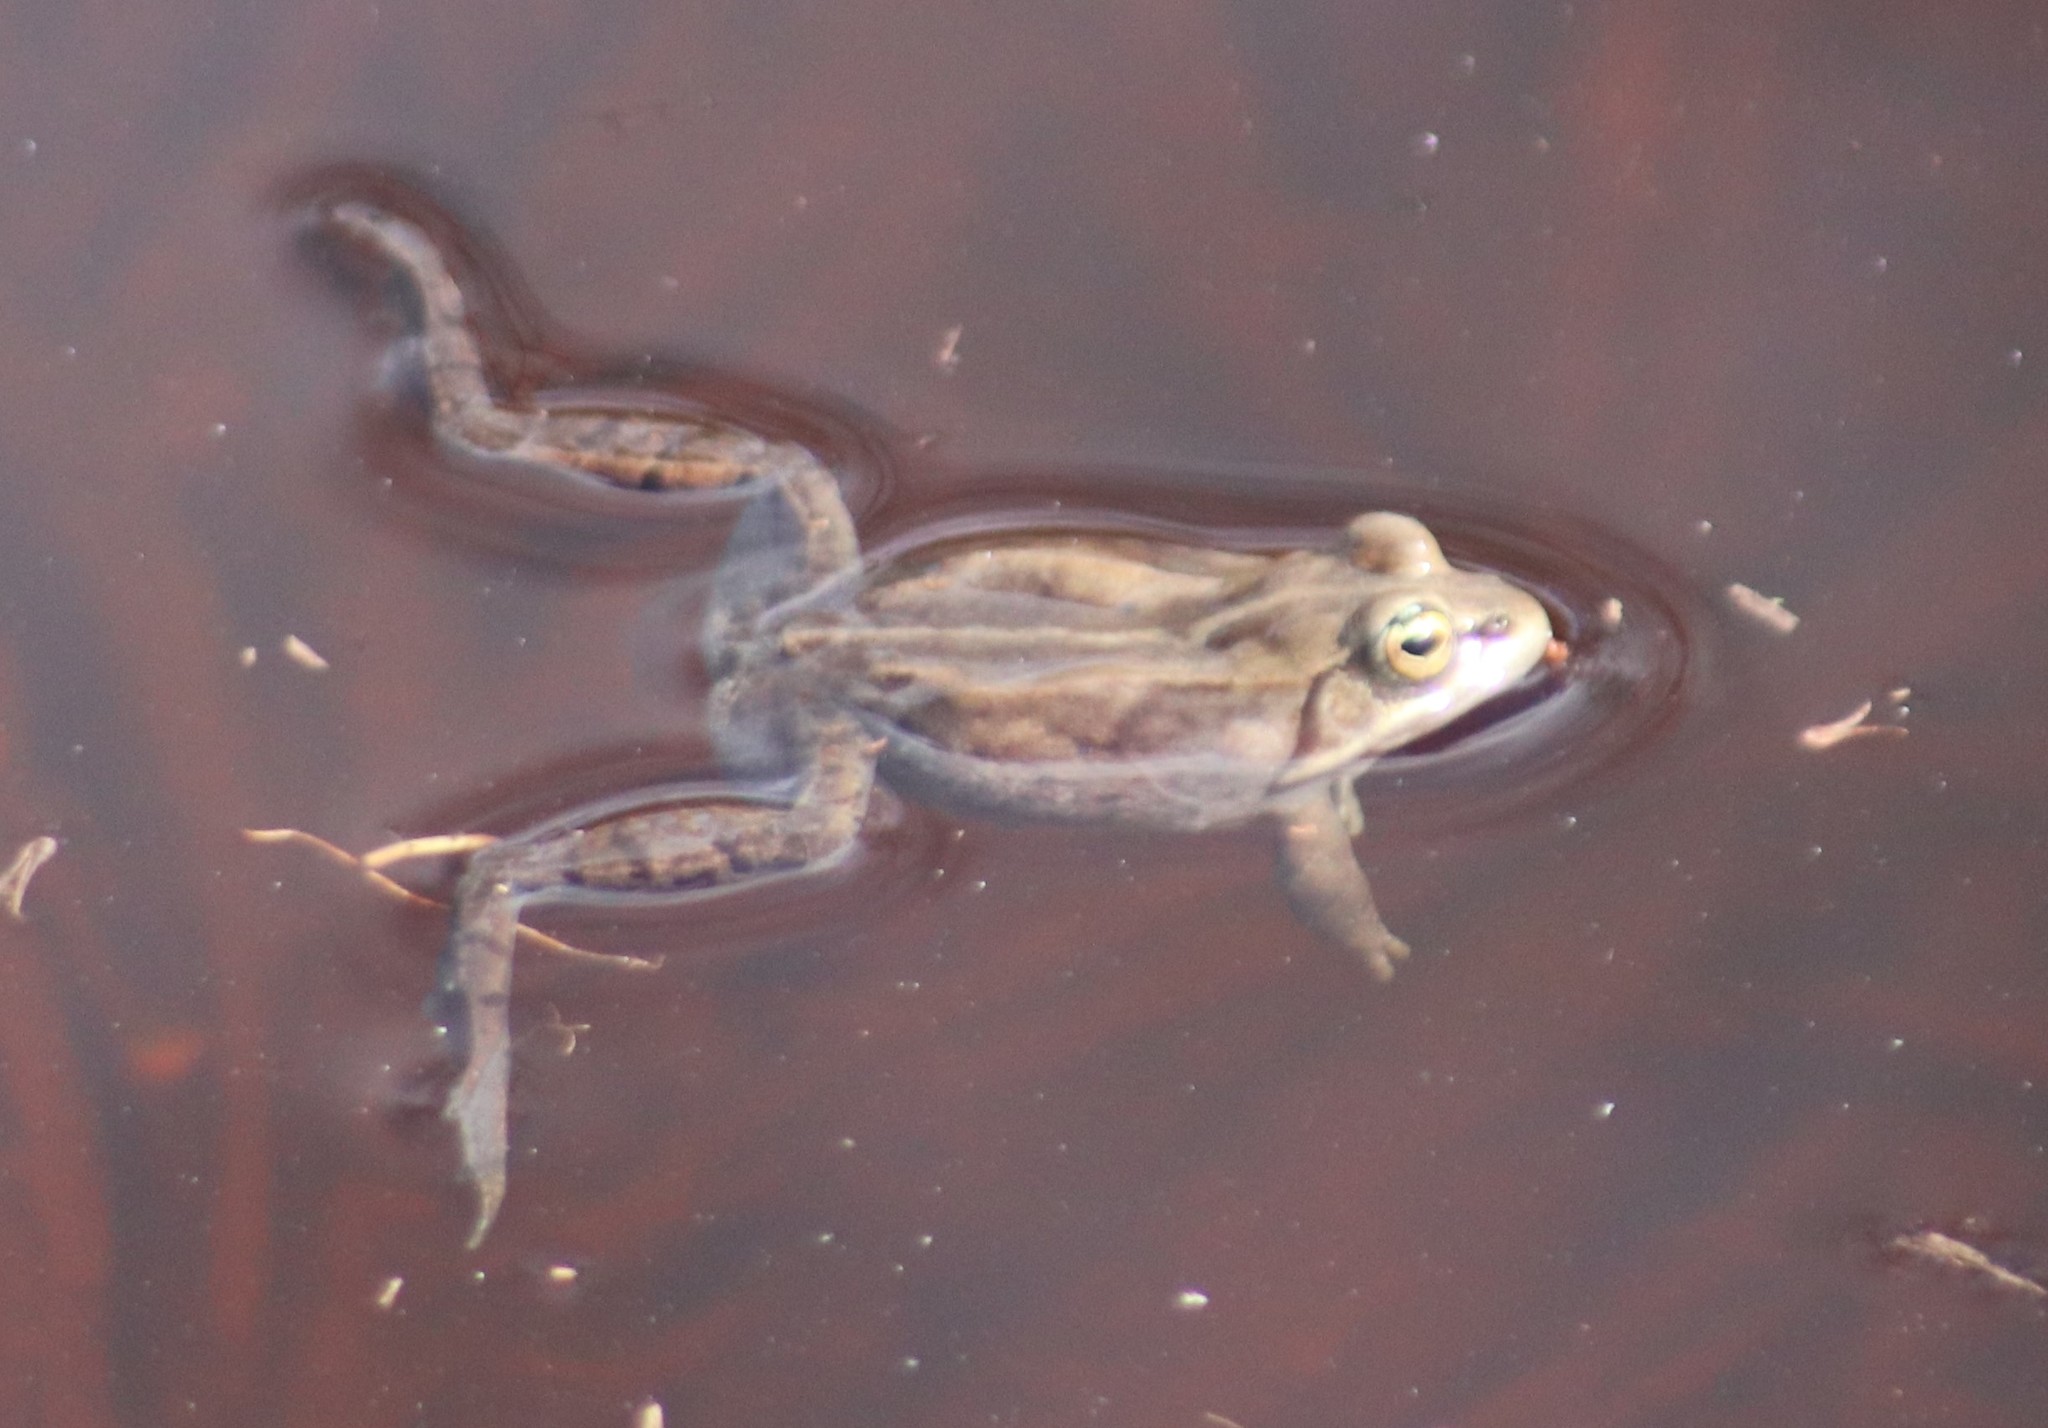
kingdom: Animalia
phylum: Chordata
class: Amphibia
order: Anura
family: Ranidae
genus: Lithobates
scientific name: Lithobates sylvaticus
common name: Wood frog
